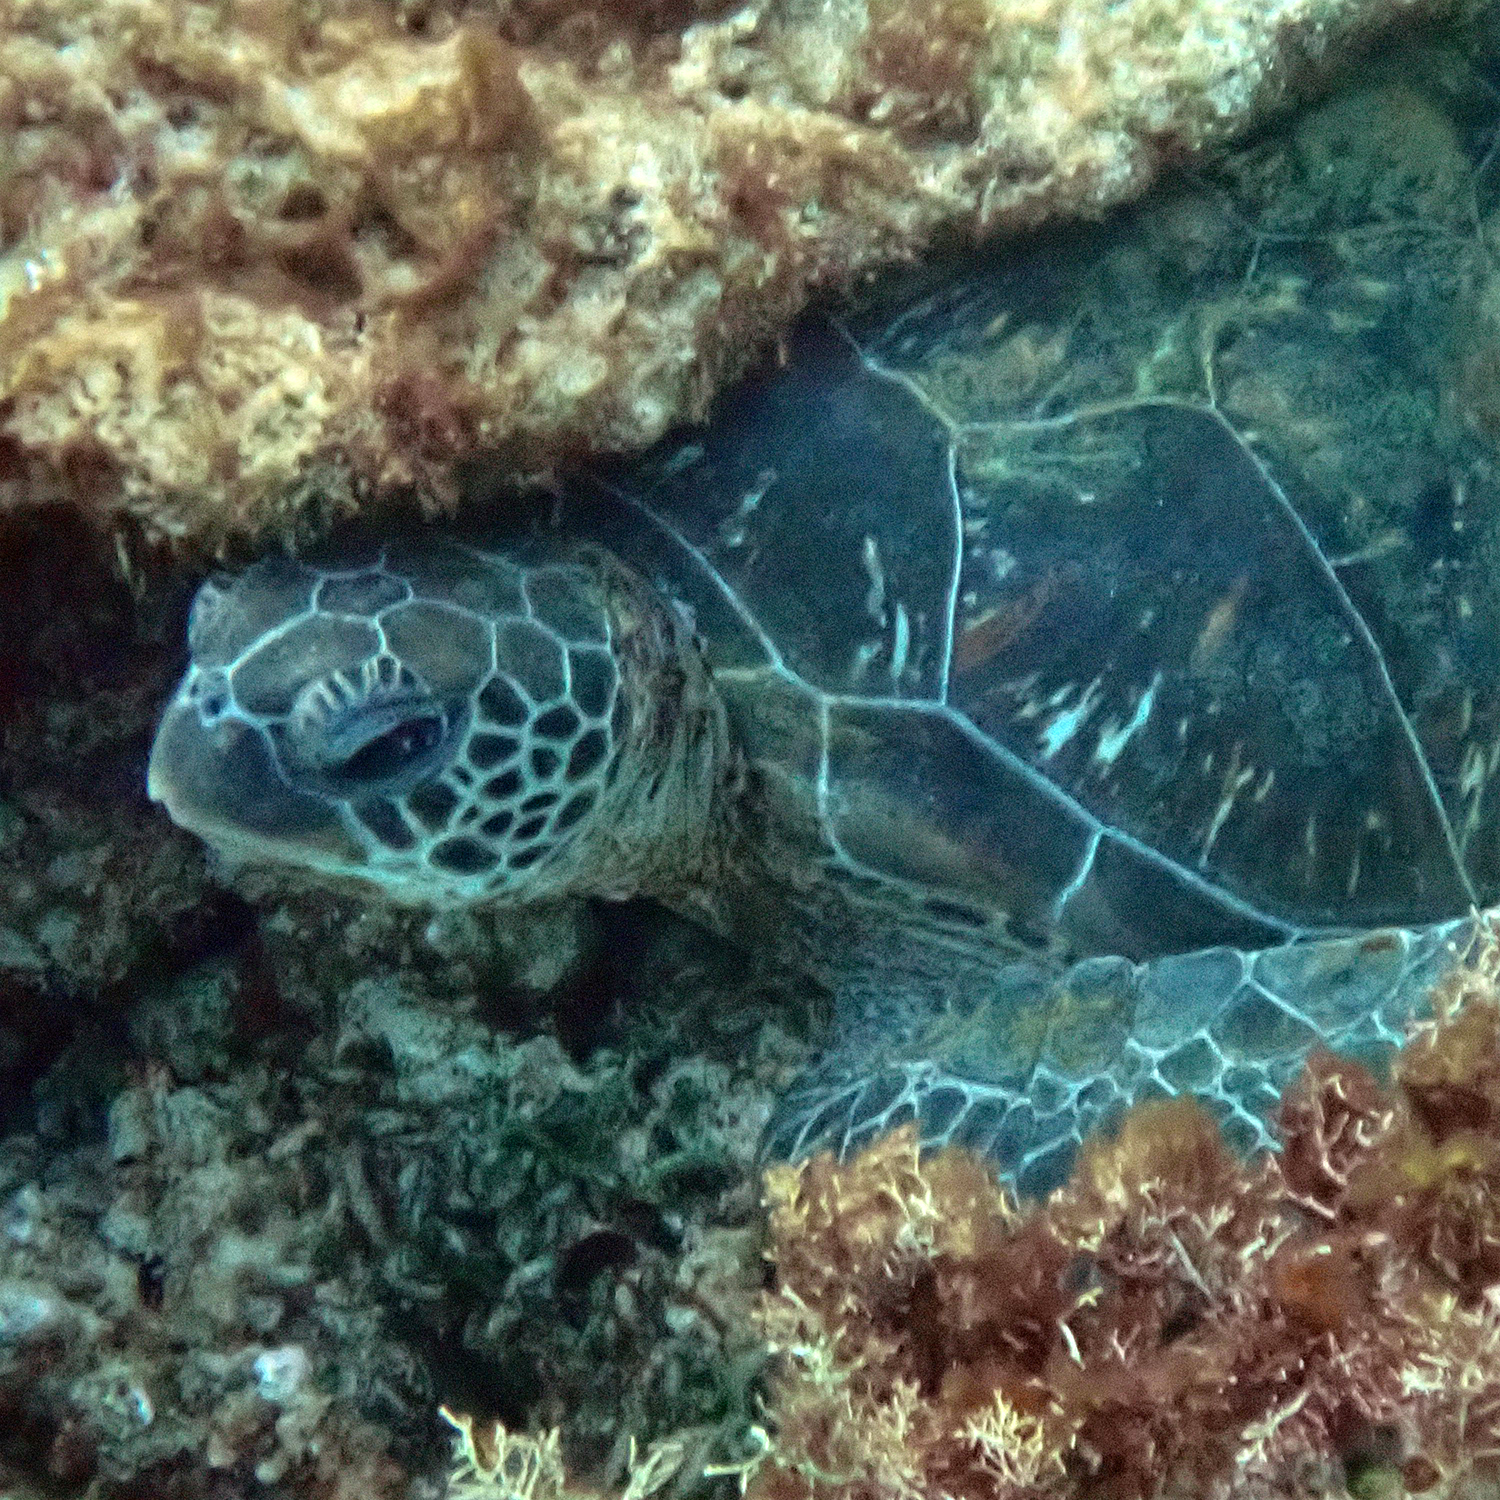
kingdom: Animalia
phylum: Chordata
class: Testudines
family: Cheloniidae
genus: Chelonia
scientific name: Chelonia mydas
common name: Green turtle
